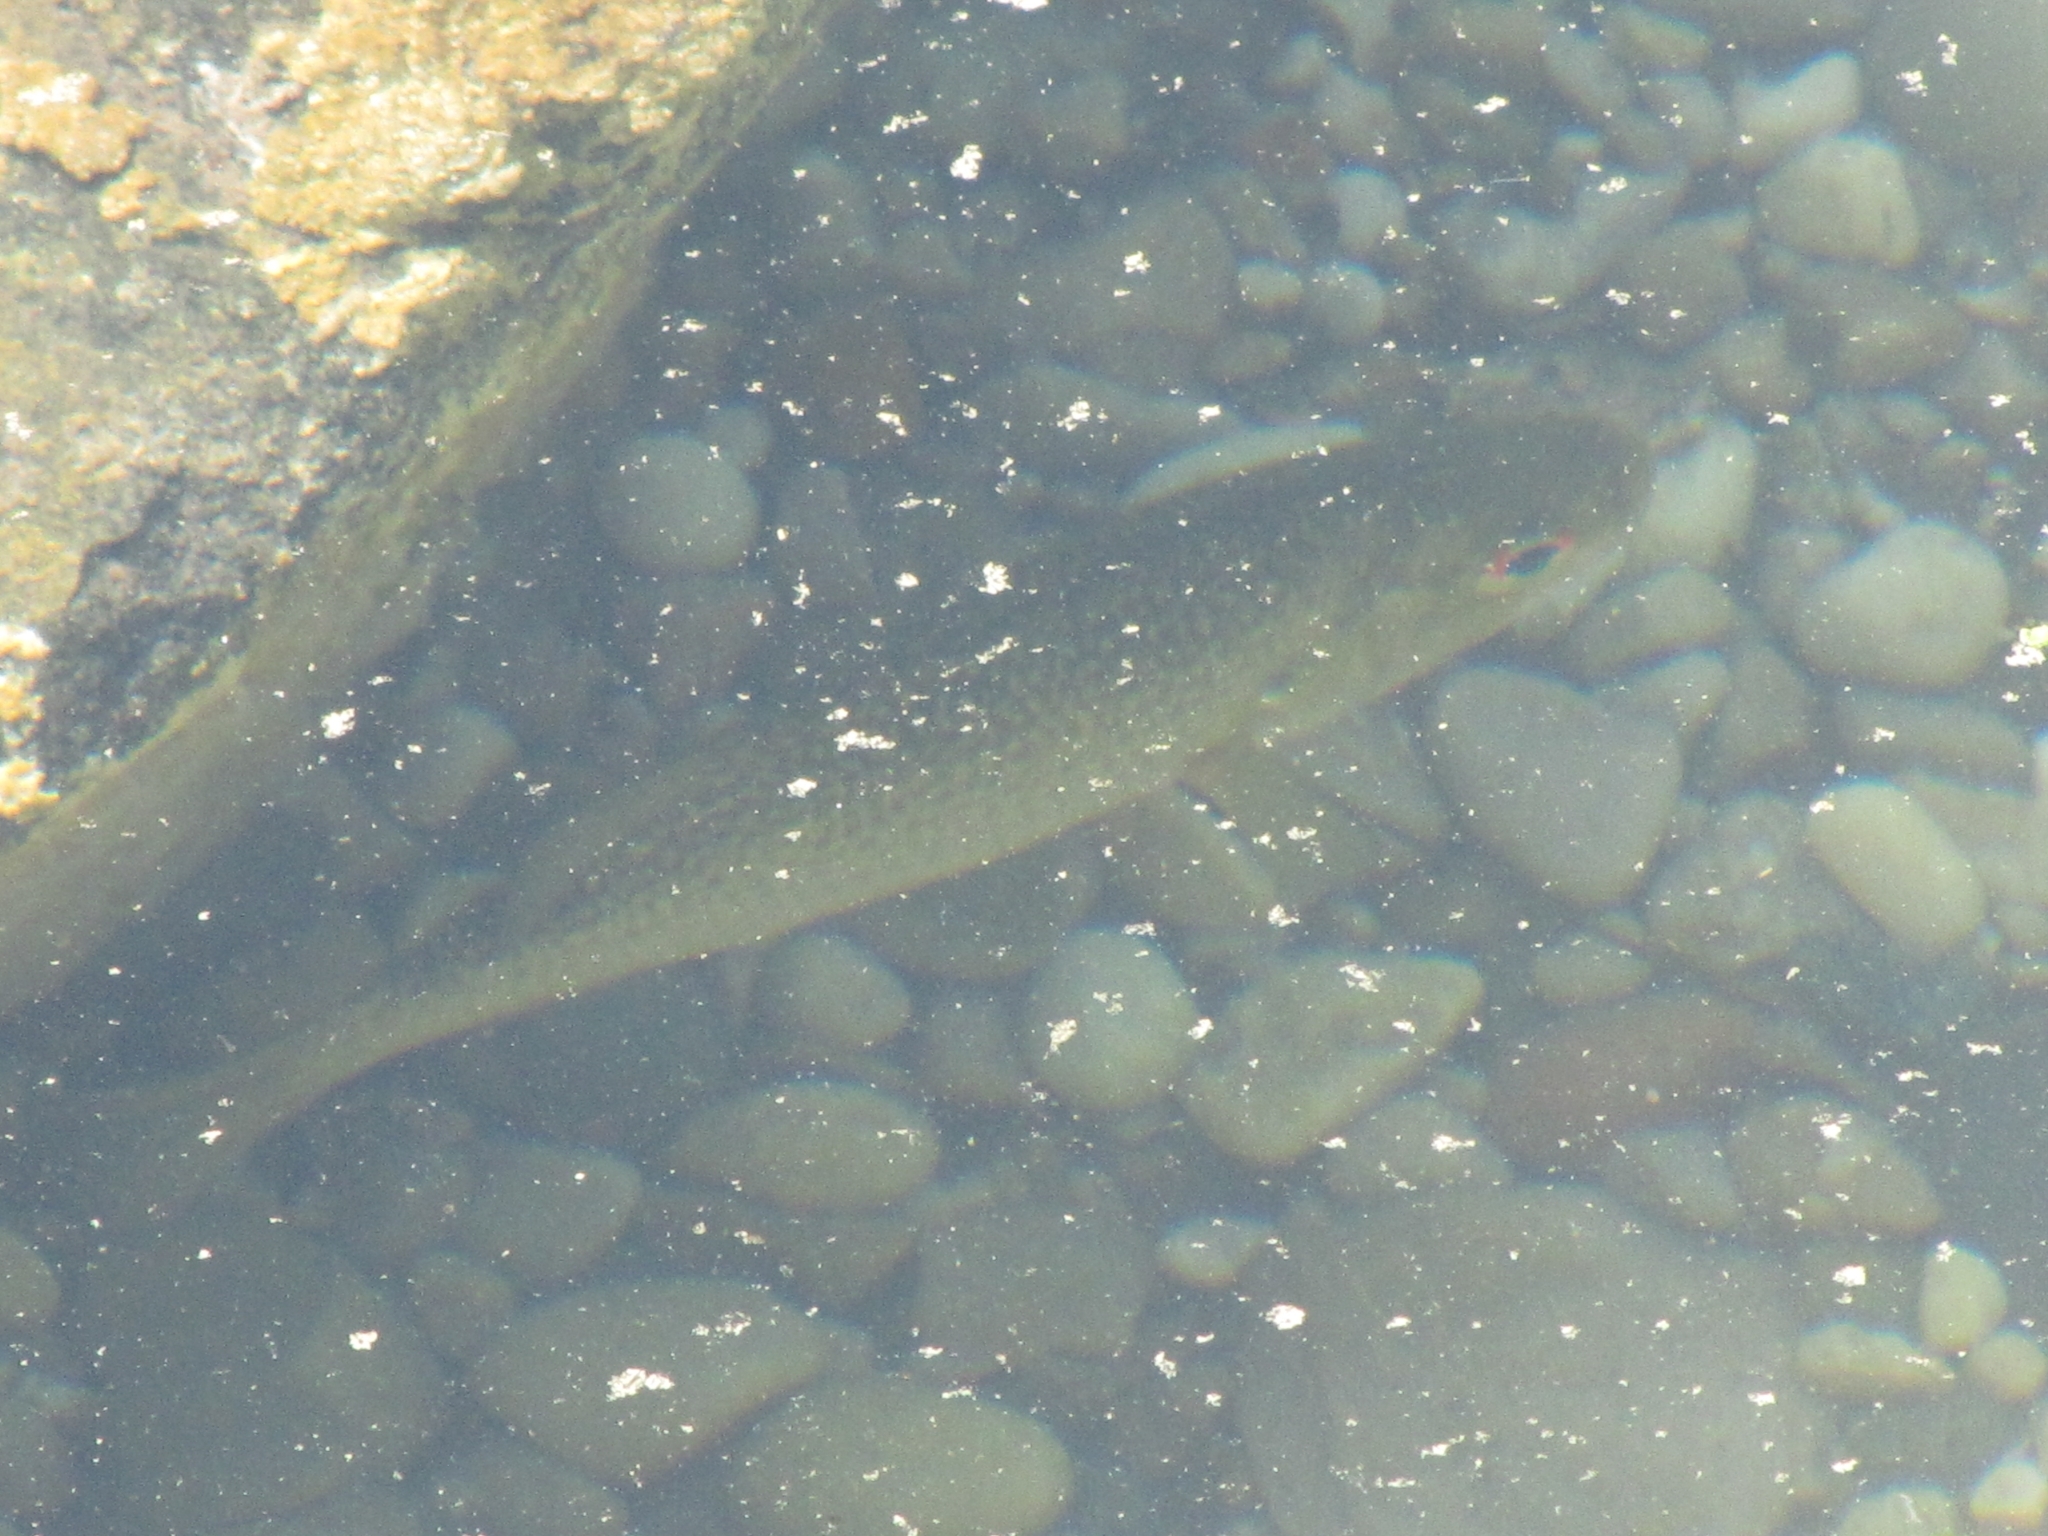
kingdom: Animalia
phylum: Chordata
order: Perciformes
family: Centrarchidae
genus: Ambloplites
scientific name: Ambloplites rupestris
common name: Rock bass
